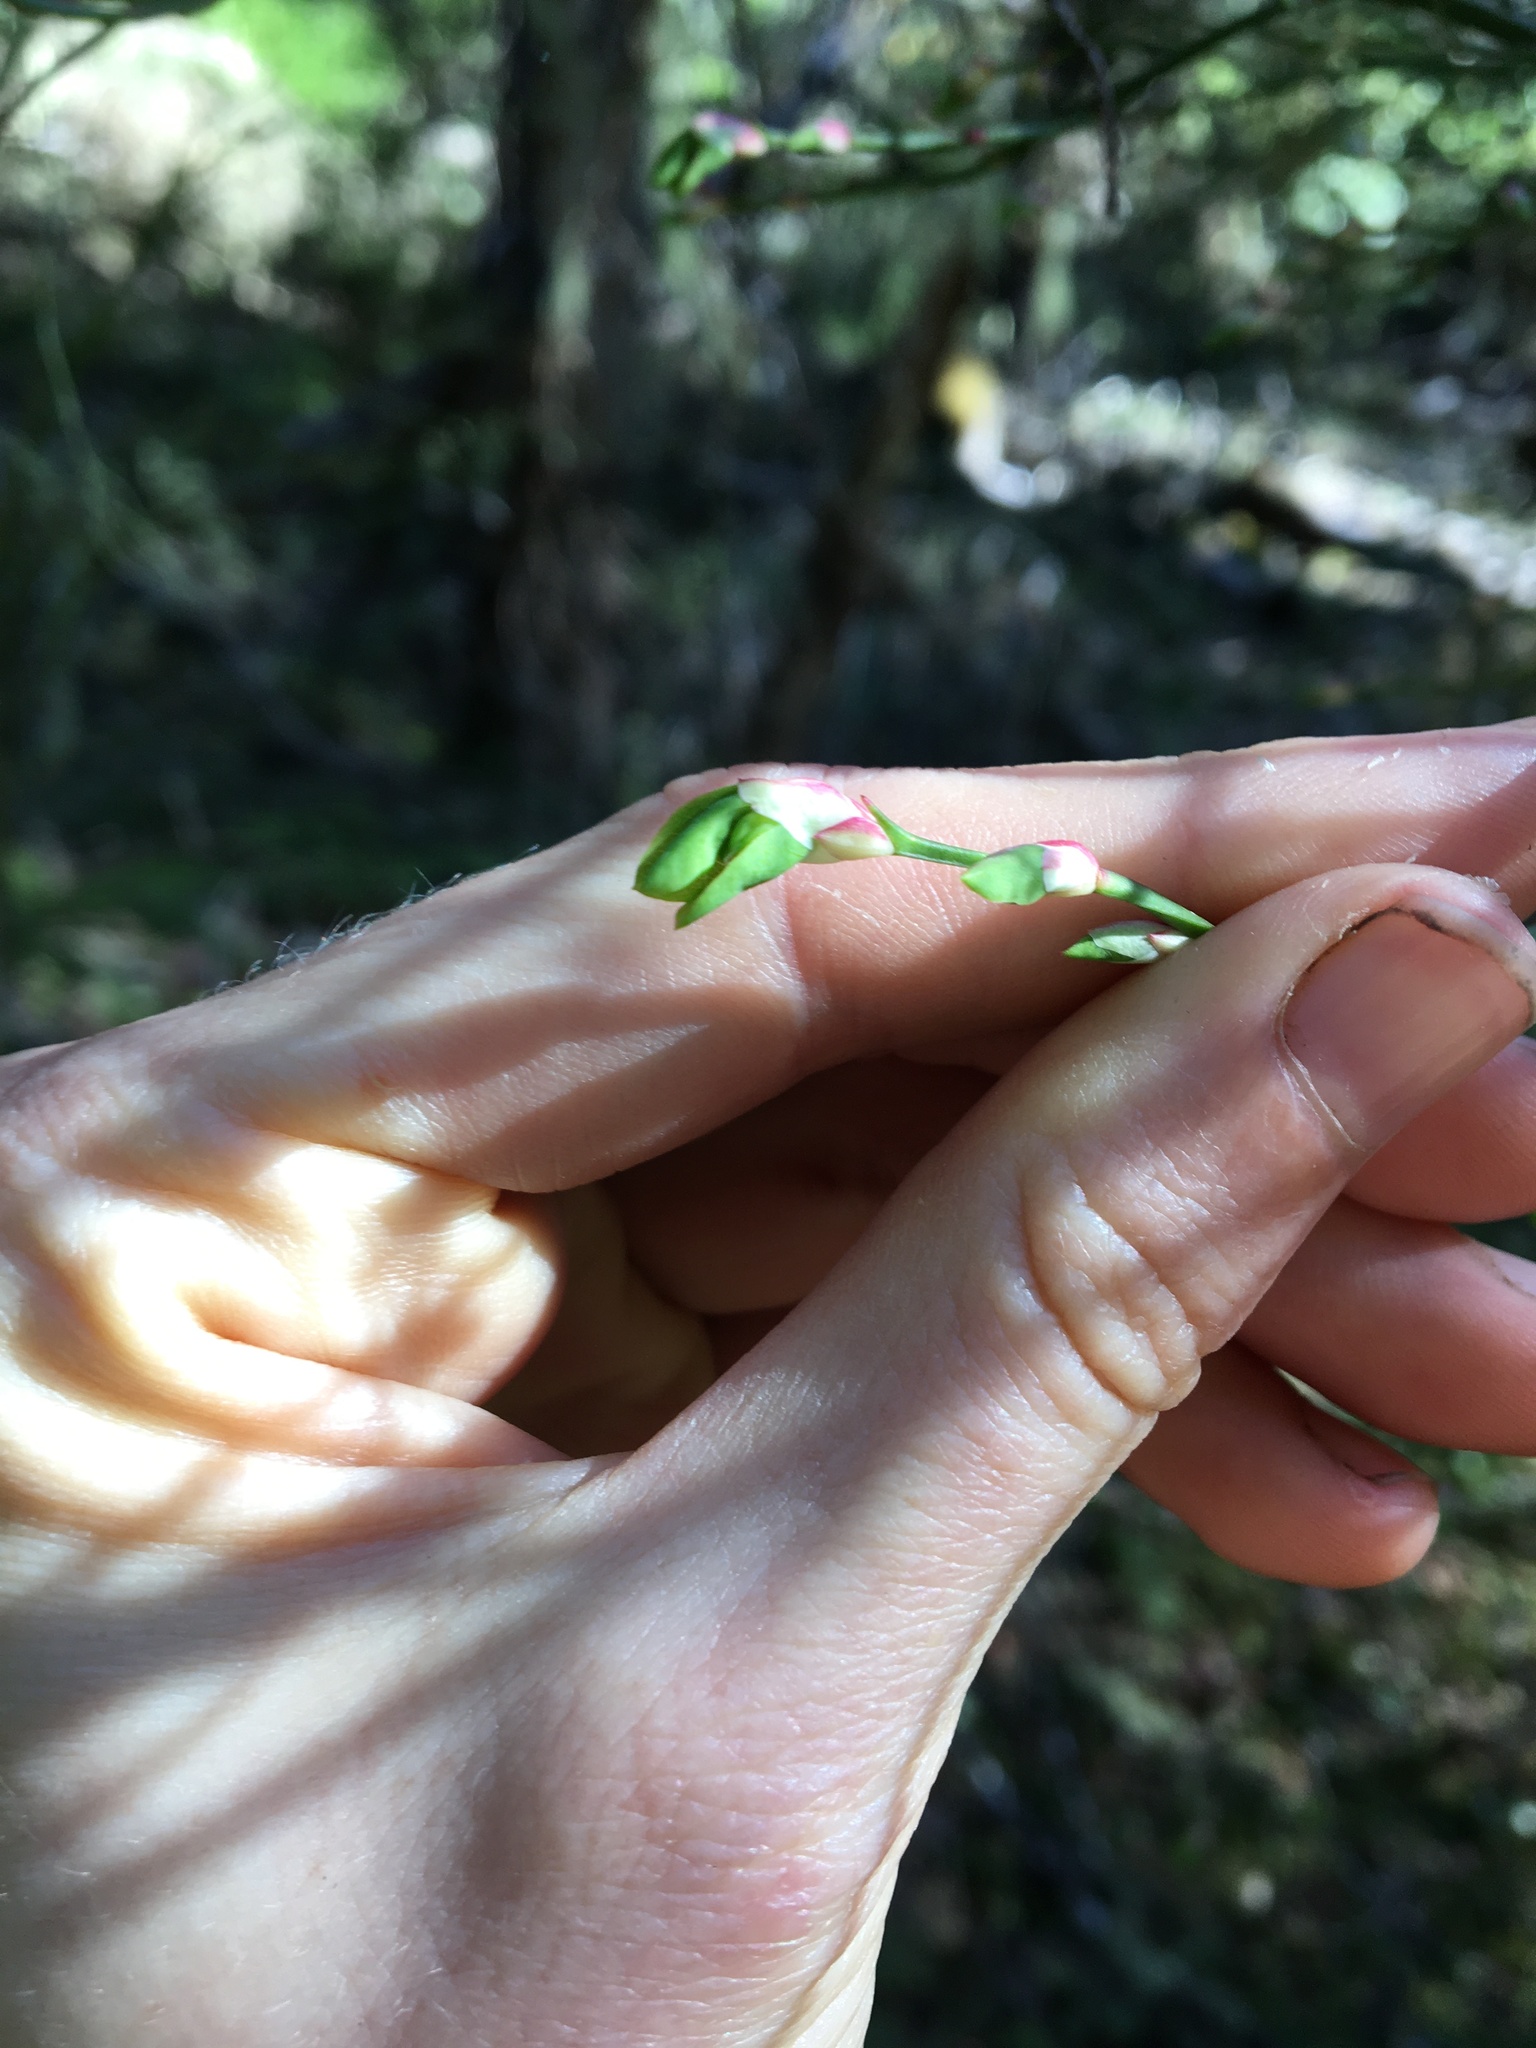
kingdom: Plantae
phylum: Tracheophyta
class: Magnoliopsida
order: Ericales
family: Ericaceae
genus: Vaccinium
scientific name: Vaccinium parvifolium
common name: Red-huckleberry
